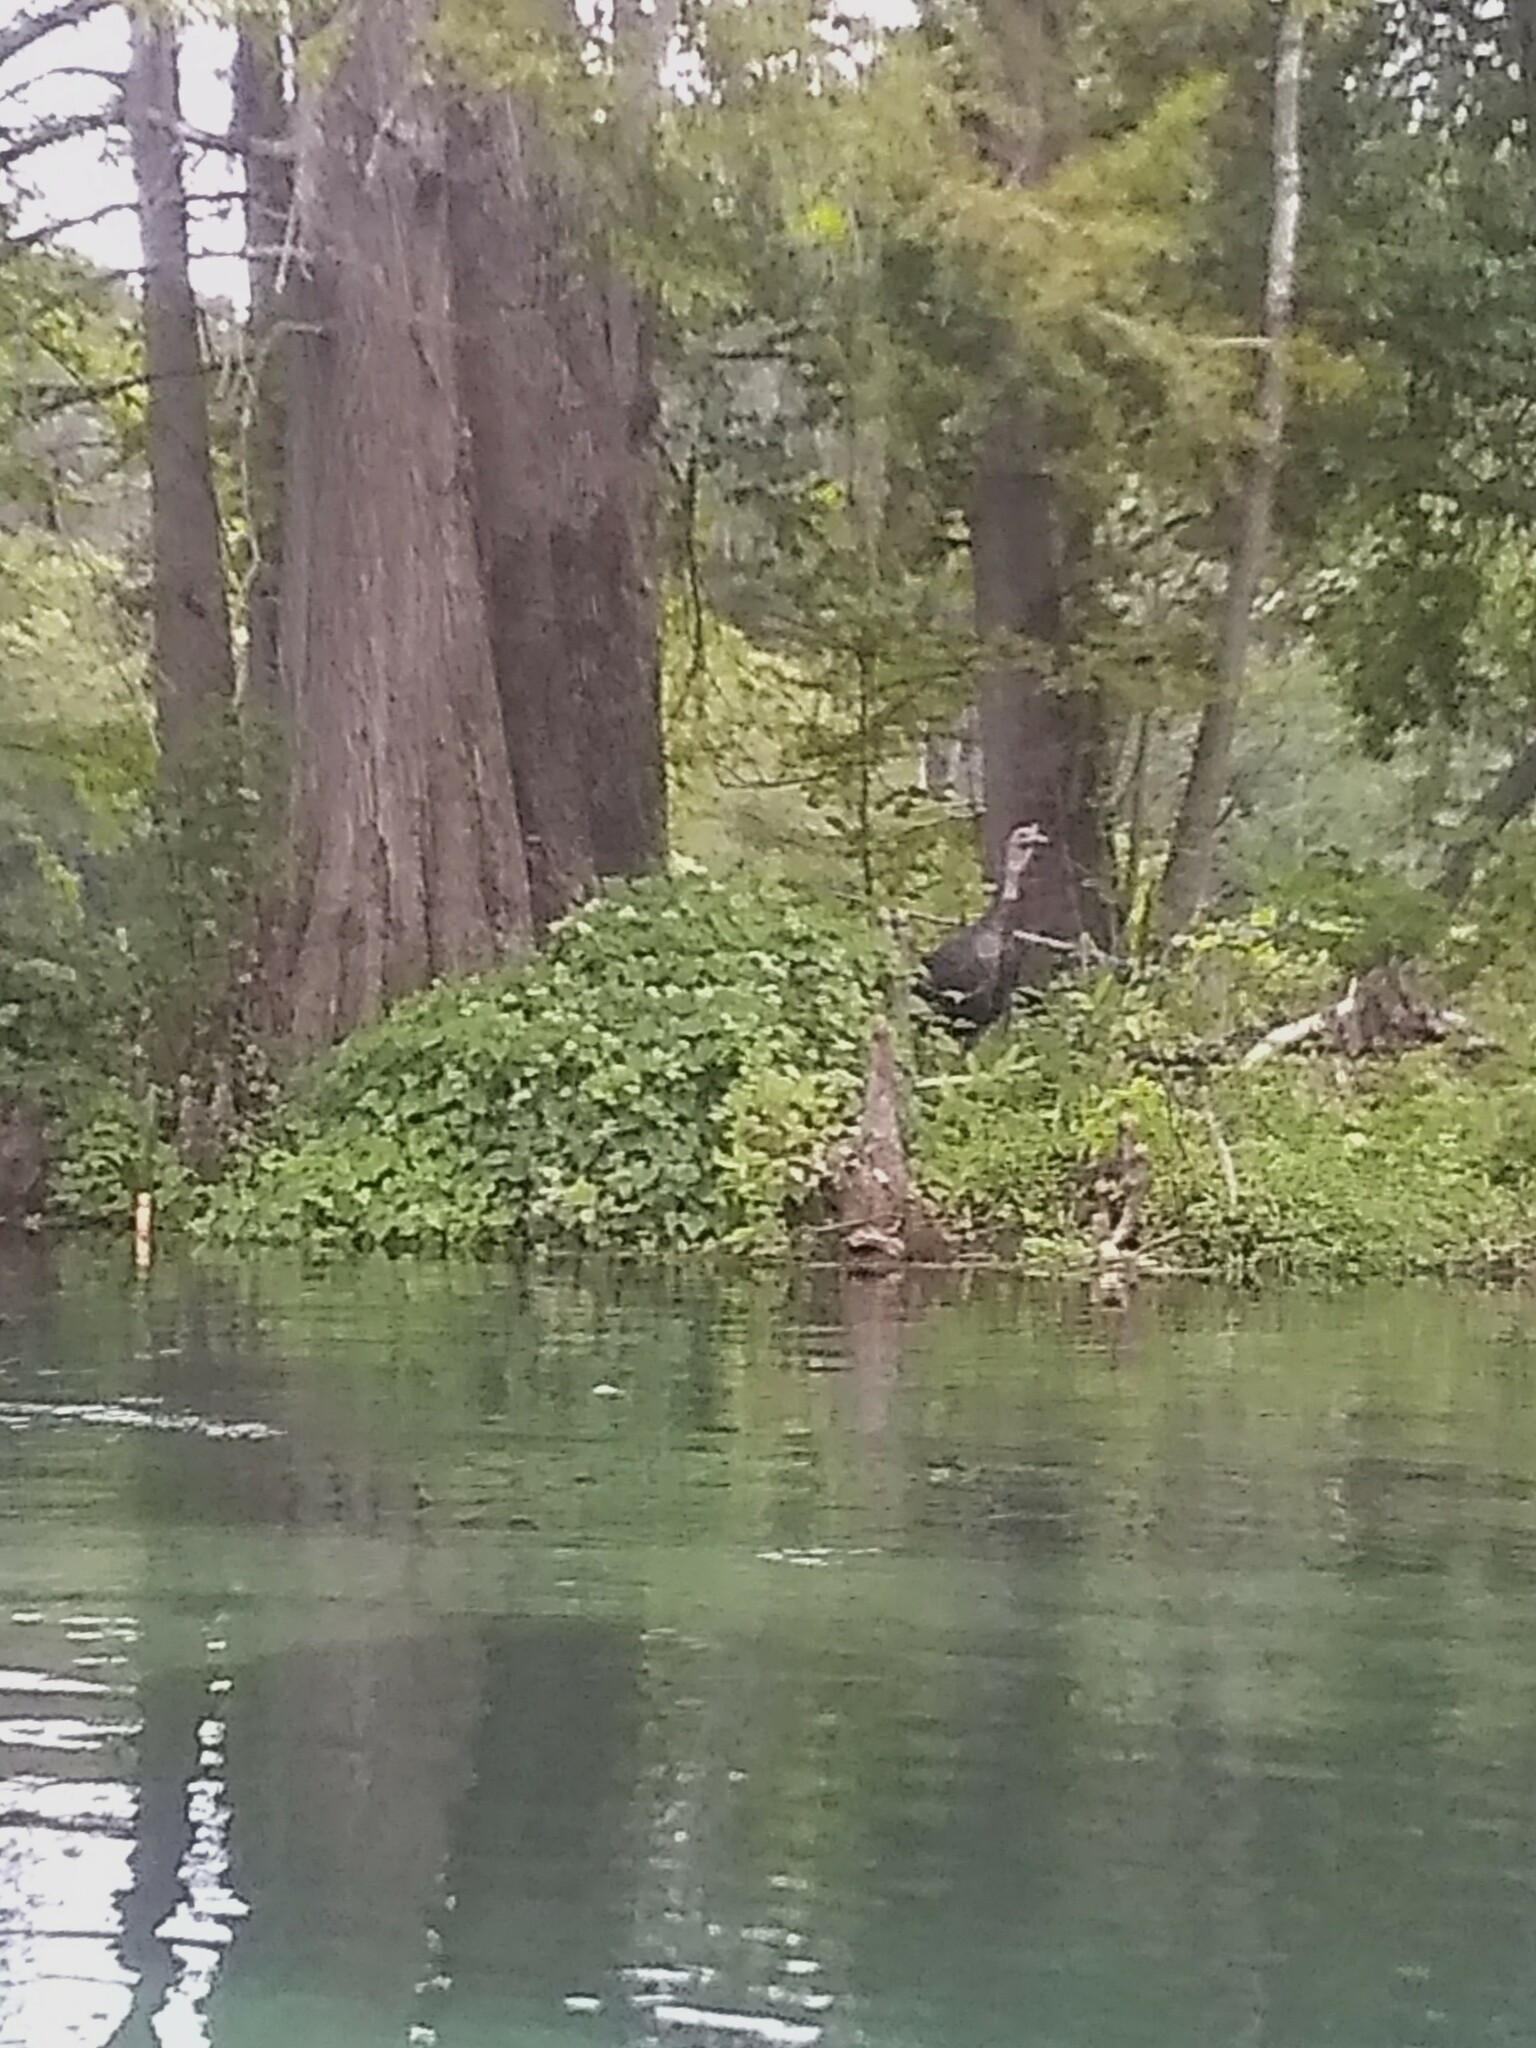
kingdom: Animalia
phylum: Chordata
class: Aves
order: Galliformes
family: Phasianidae
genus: Meleagris
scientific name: Meleagris gallopavo
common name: Wild turkey
